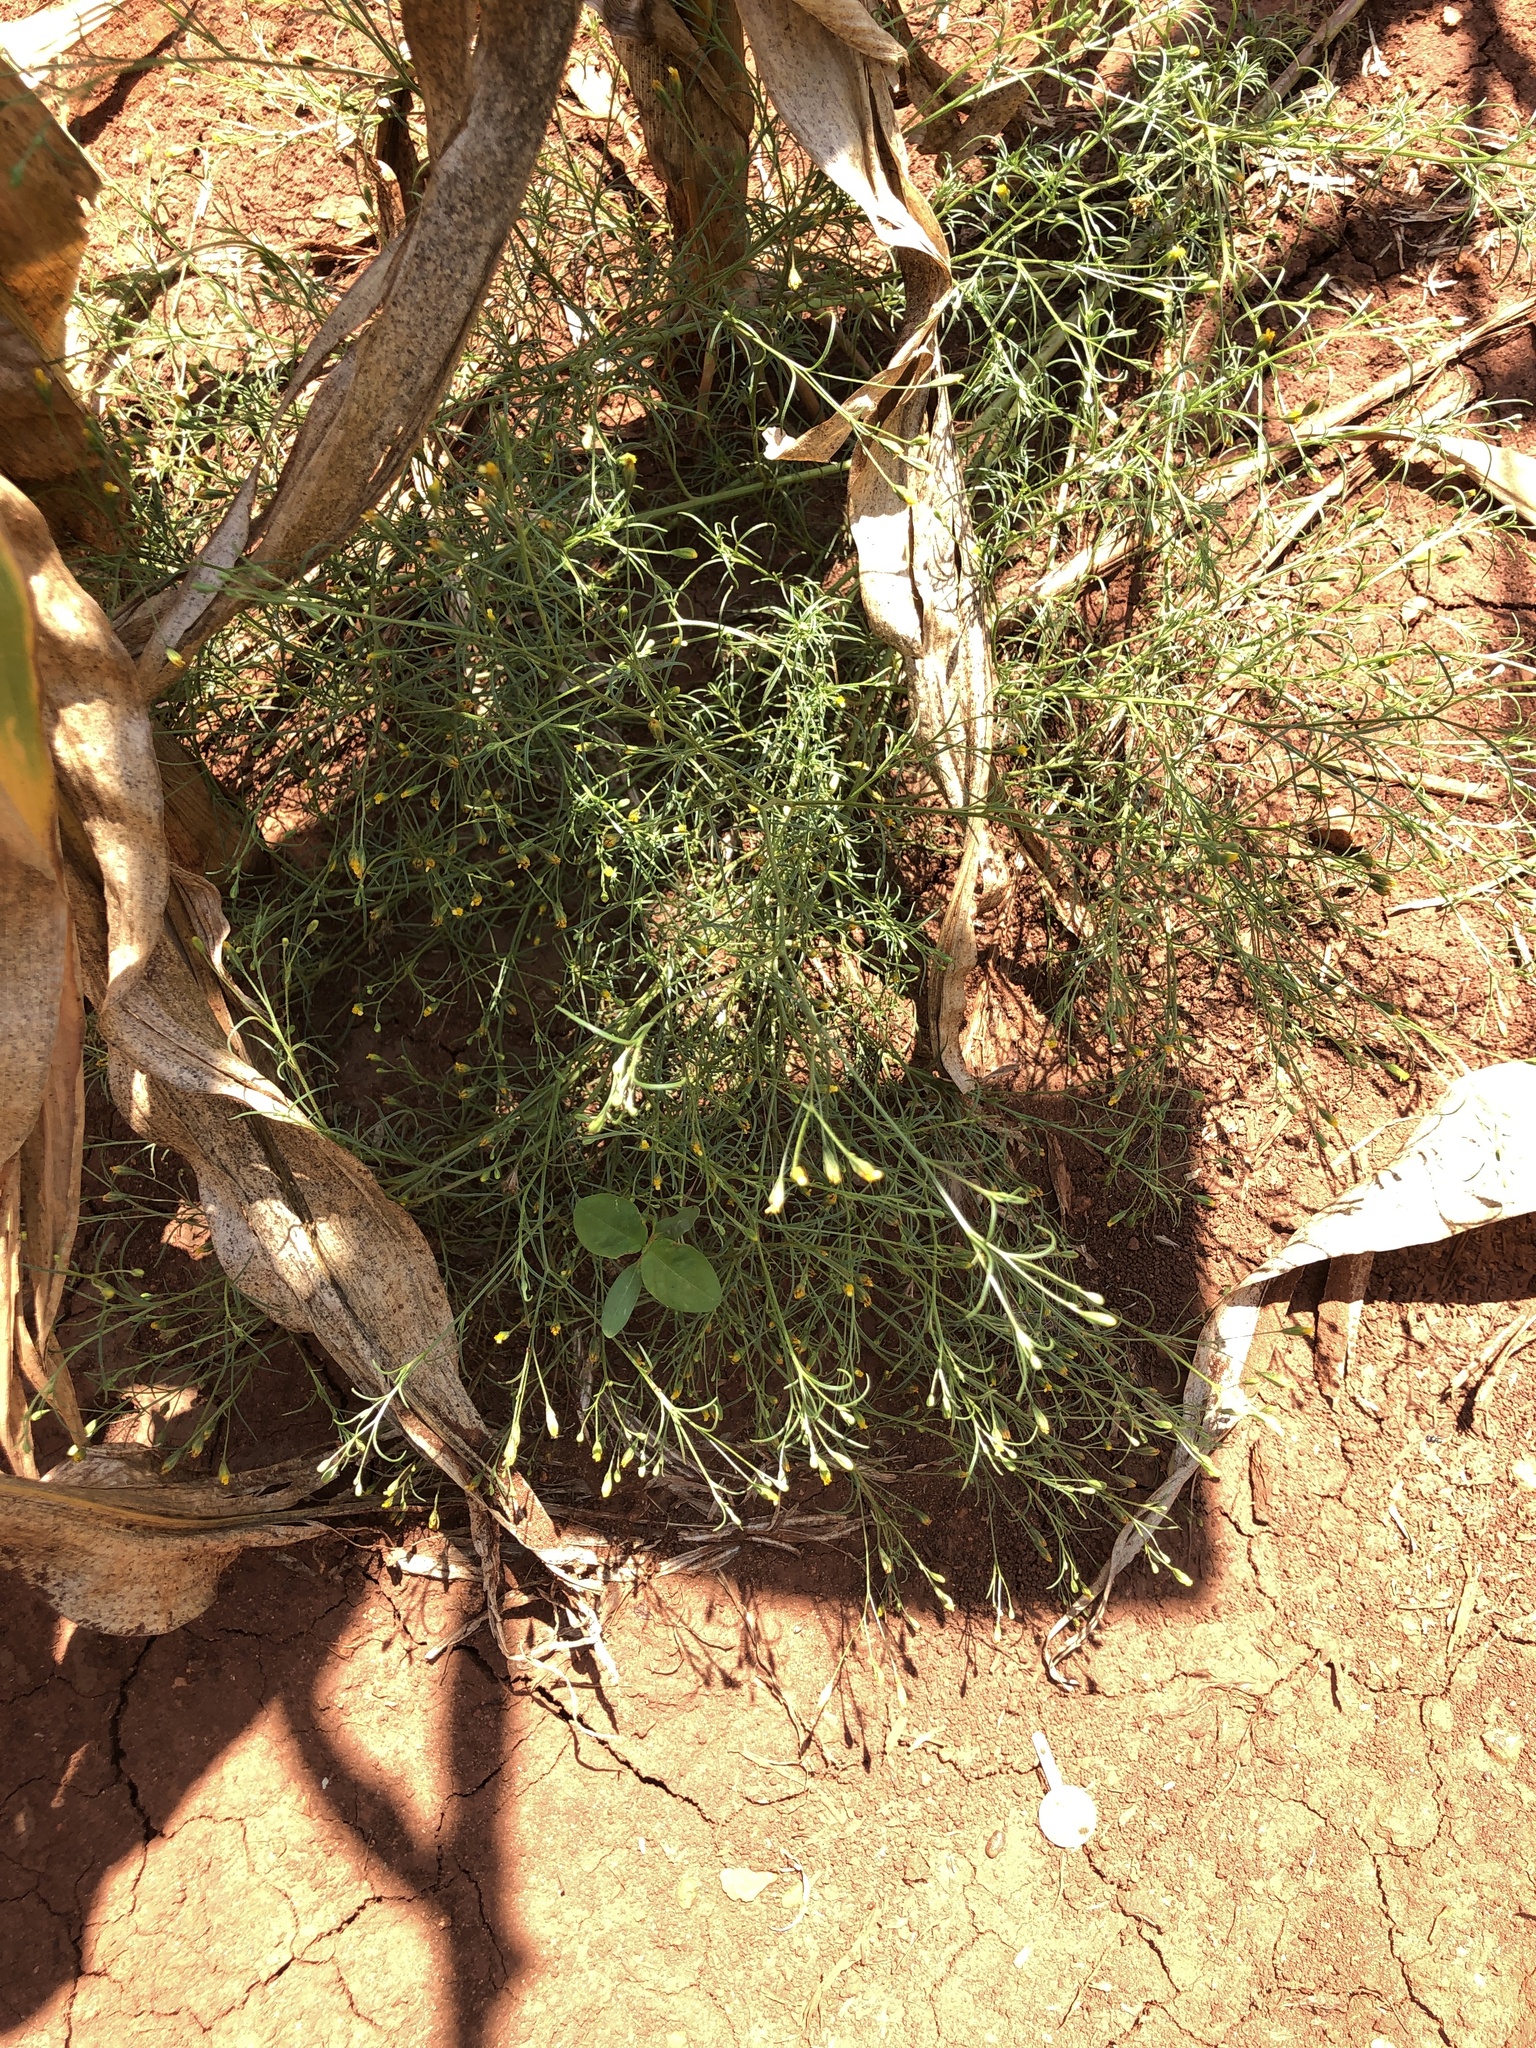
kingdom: Plantae
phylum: Tracheophyta
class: Magnoliopsida
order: Asterales
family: Asteraceae
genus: Schkuhria
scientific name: Schkuhria pinnata
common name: Dwarf marigold
